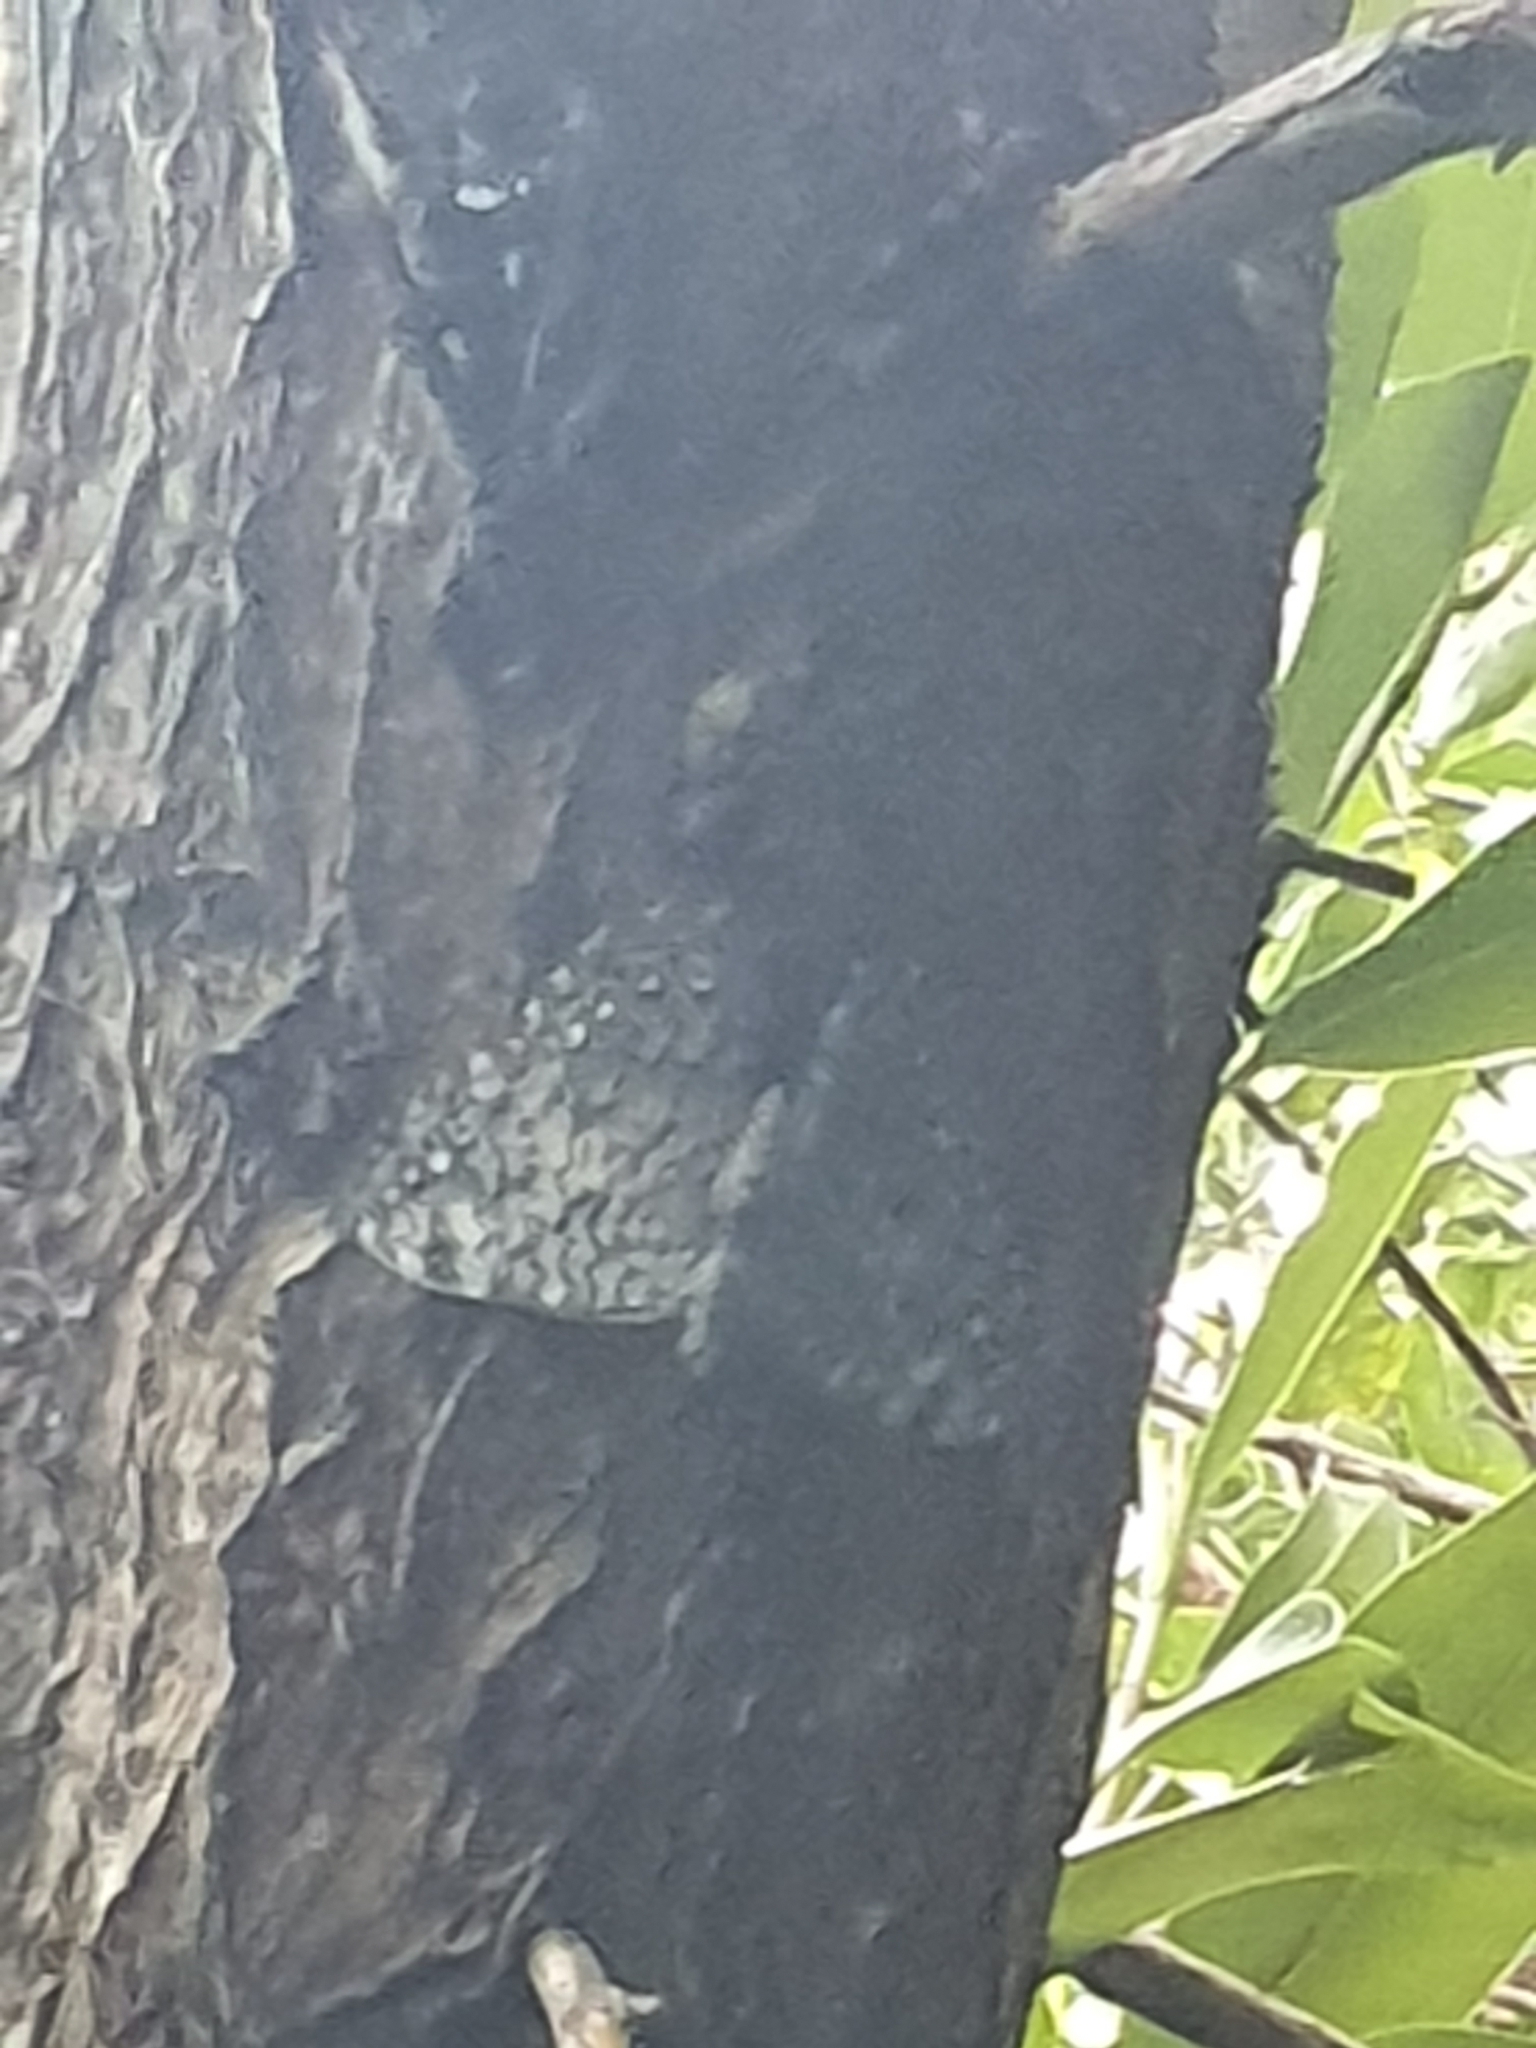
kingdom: Animalia
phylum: Arthropoda
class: Insecta
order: Lepidoptera
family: Nymphalidae
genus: Hamadryas
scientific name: Hamadryas februa
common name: Gray cracker
